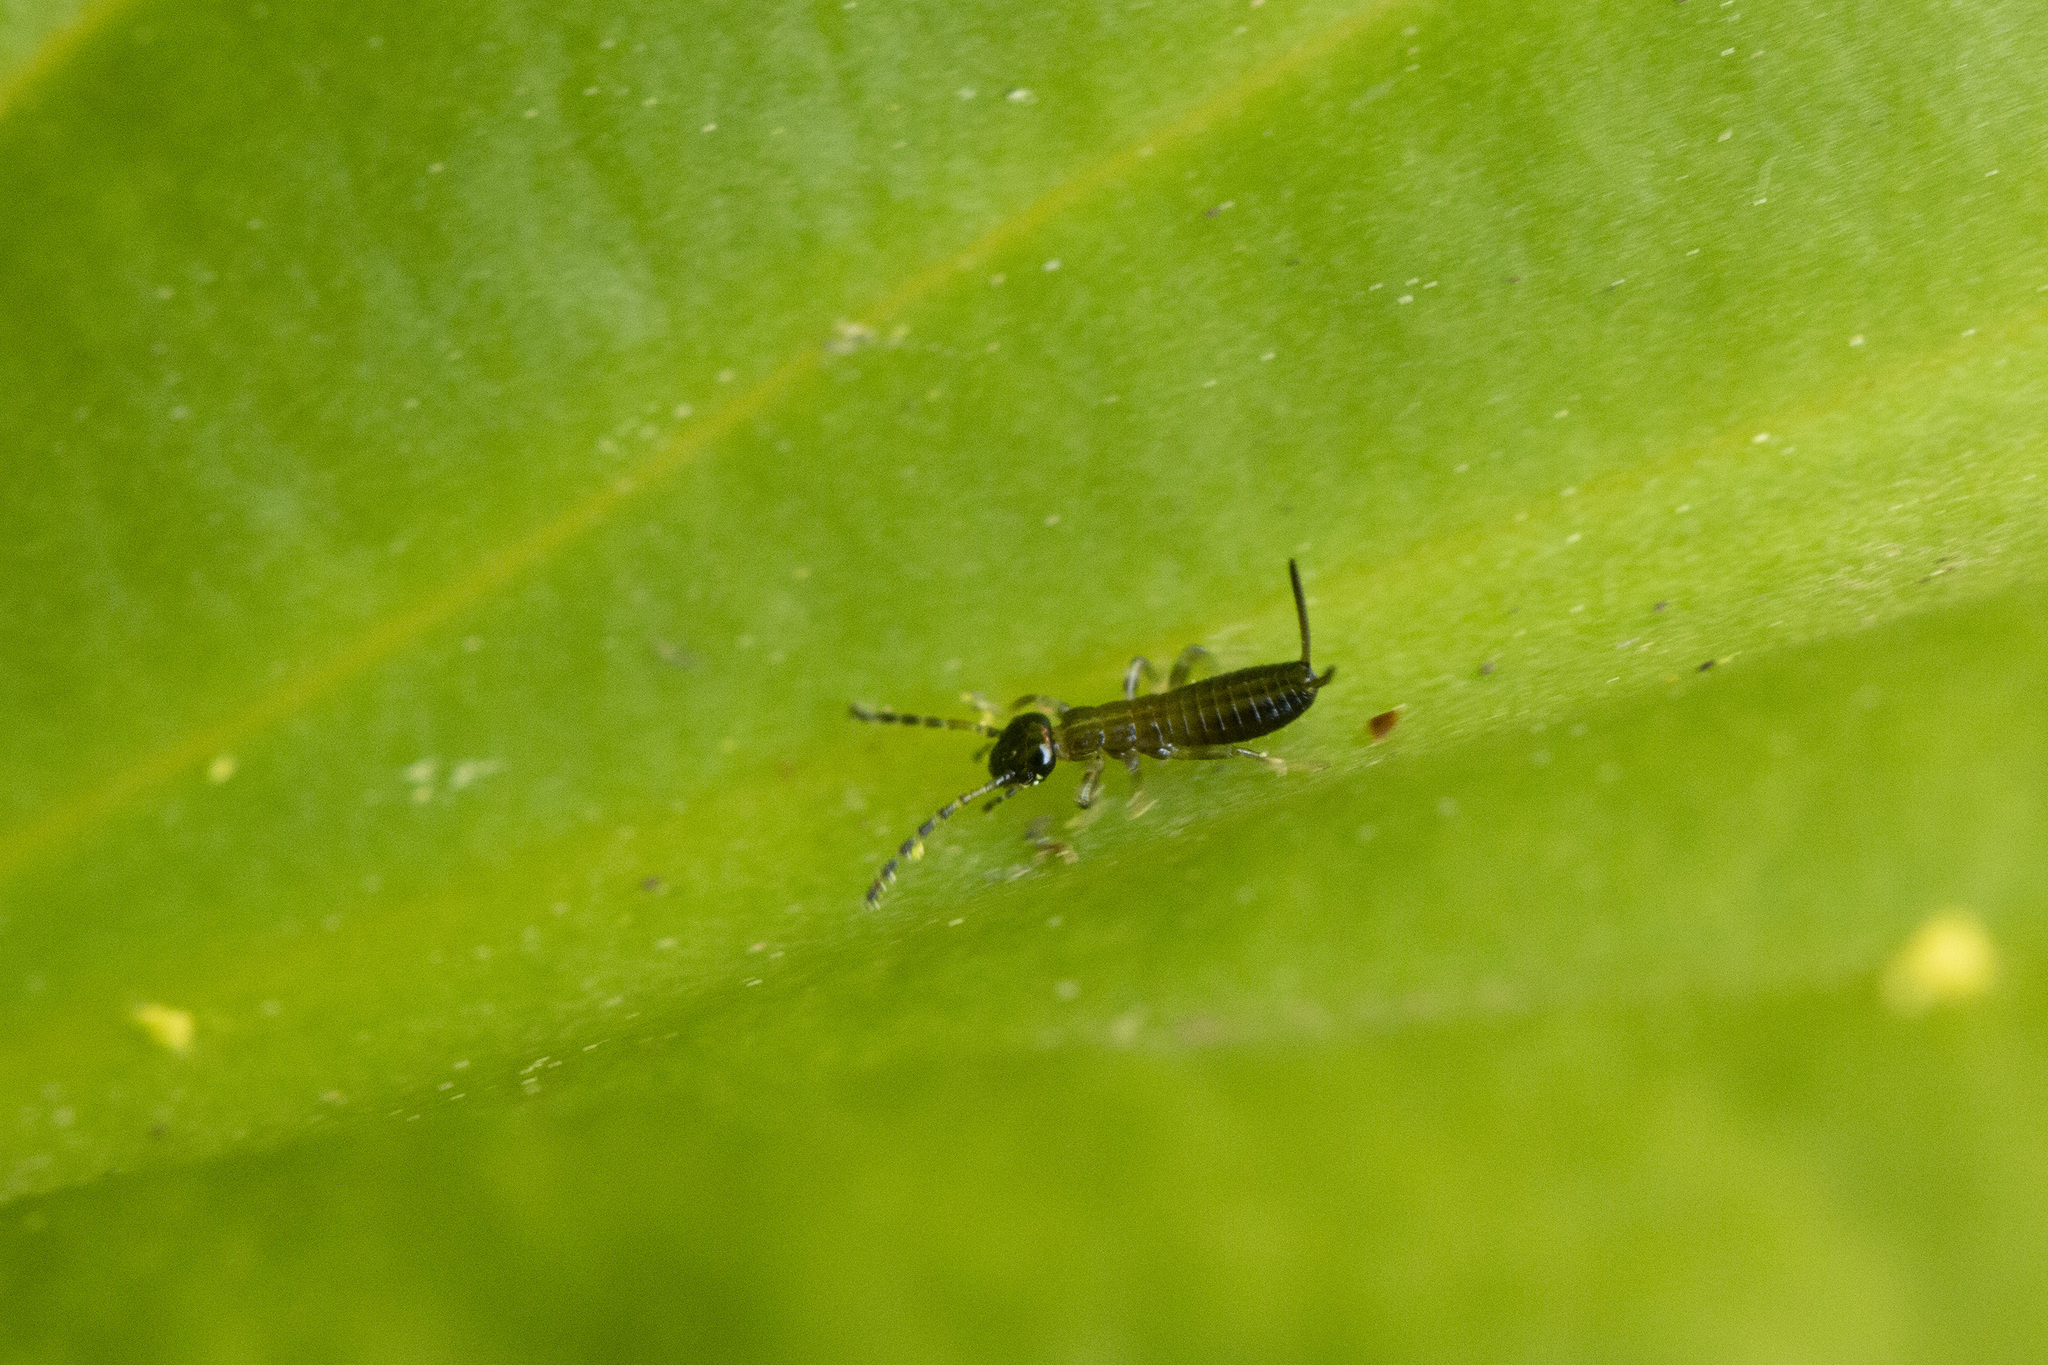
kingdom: Animalia
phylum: Arthropoda
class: Insecta
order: Dermaptera
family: Forficulidae
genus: Apterygida
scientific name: Apterygida albipennis
